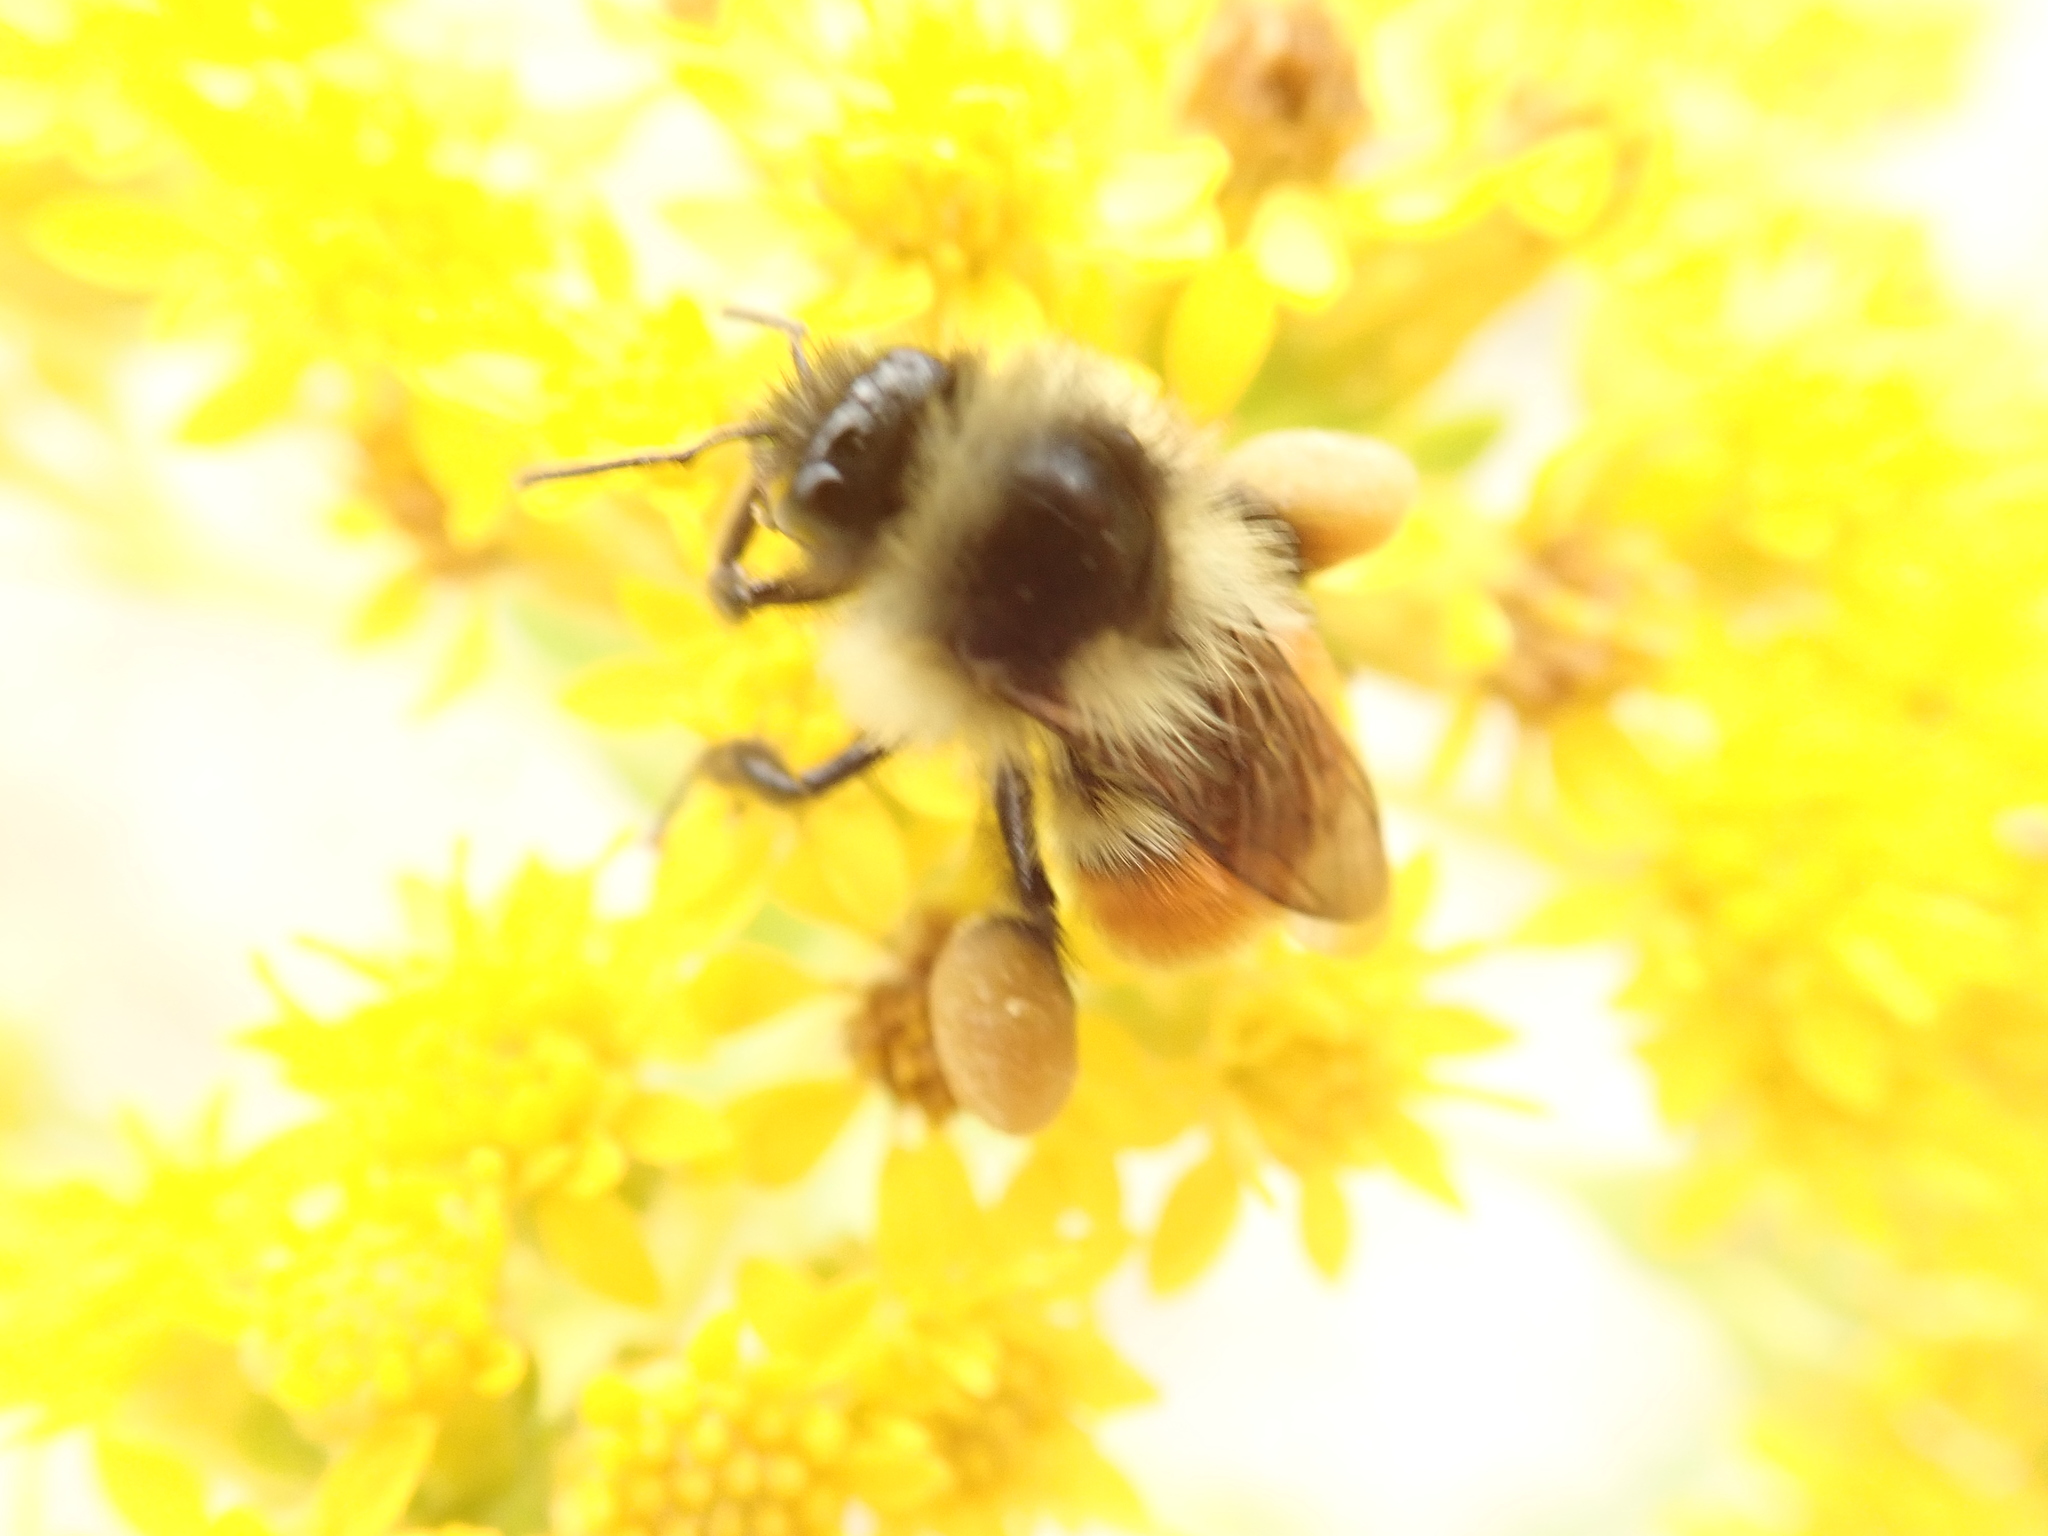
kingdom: Animalia
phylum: Arthropoda
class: Insecta
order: Hymenoptera
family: Apidae
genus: Bombus
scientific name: Bombus ternarius
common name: Tri-colored bumble bee
